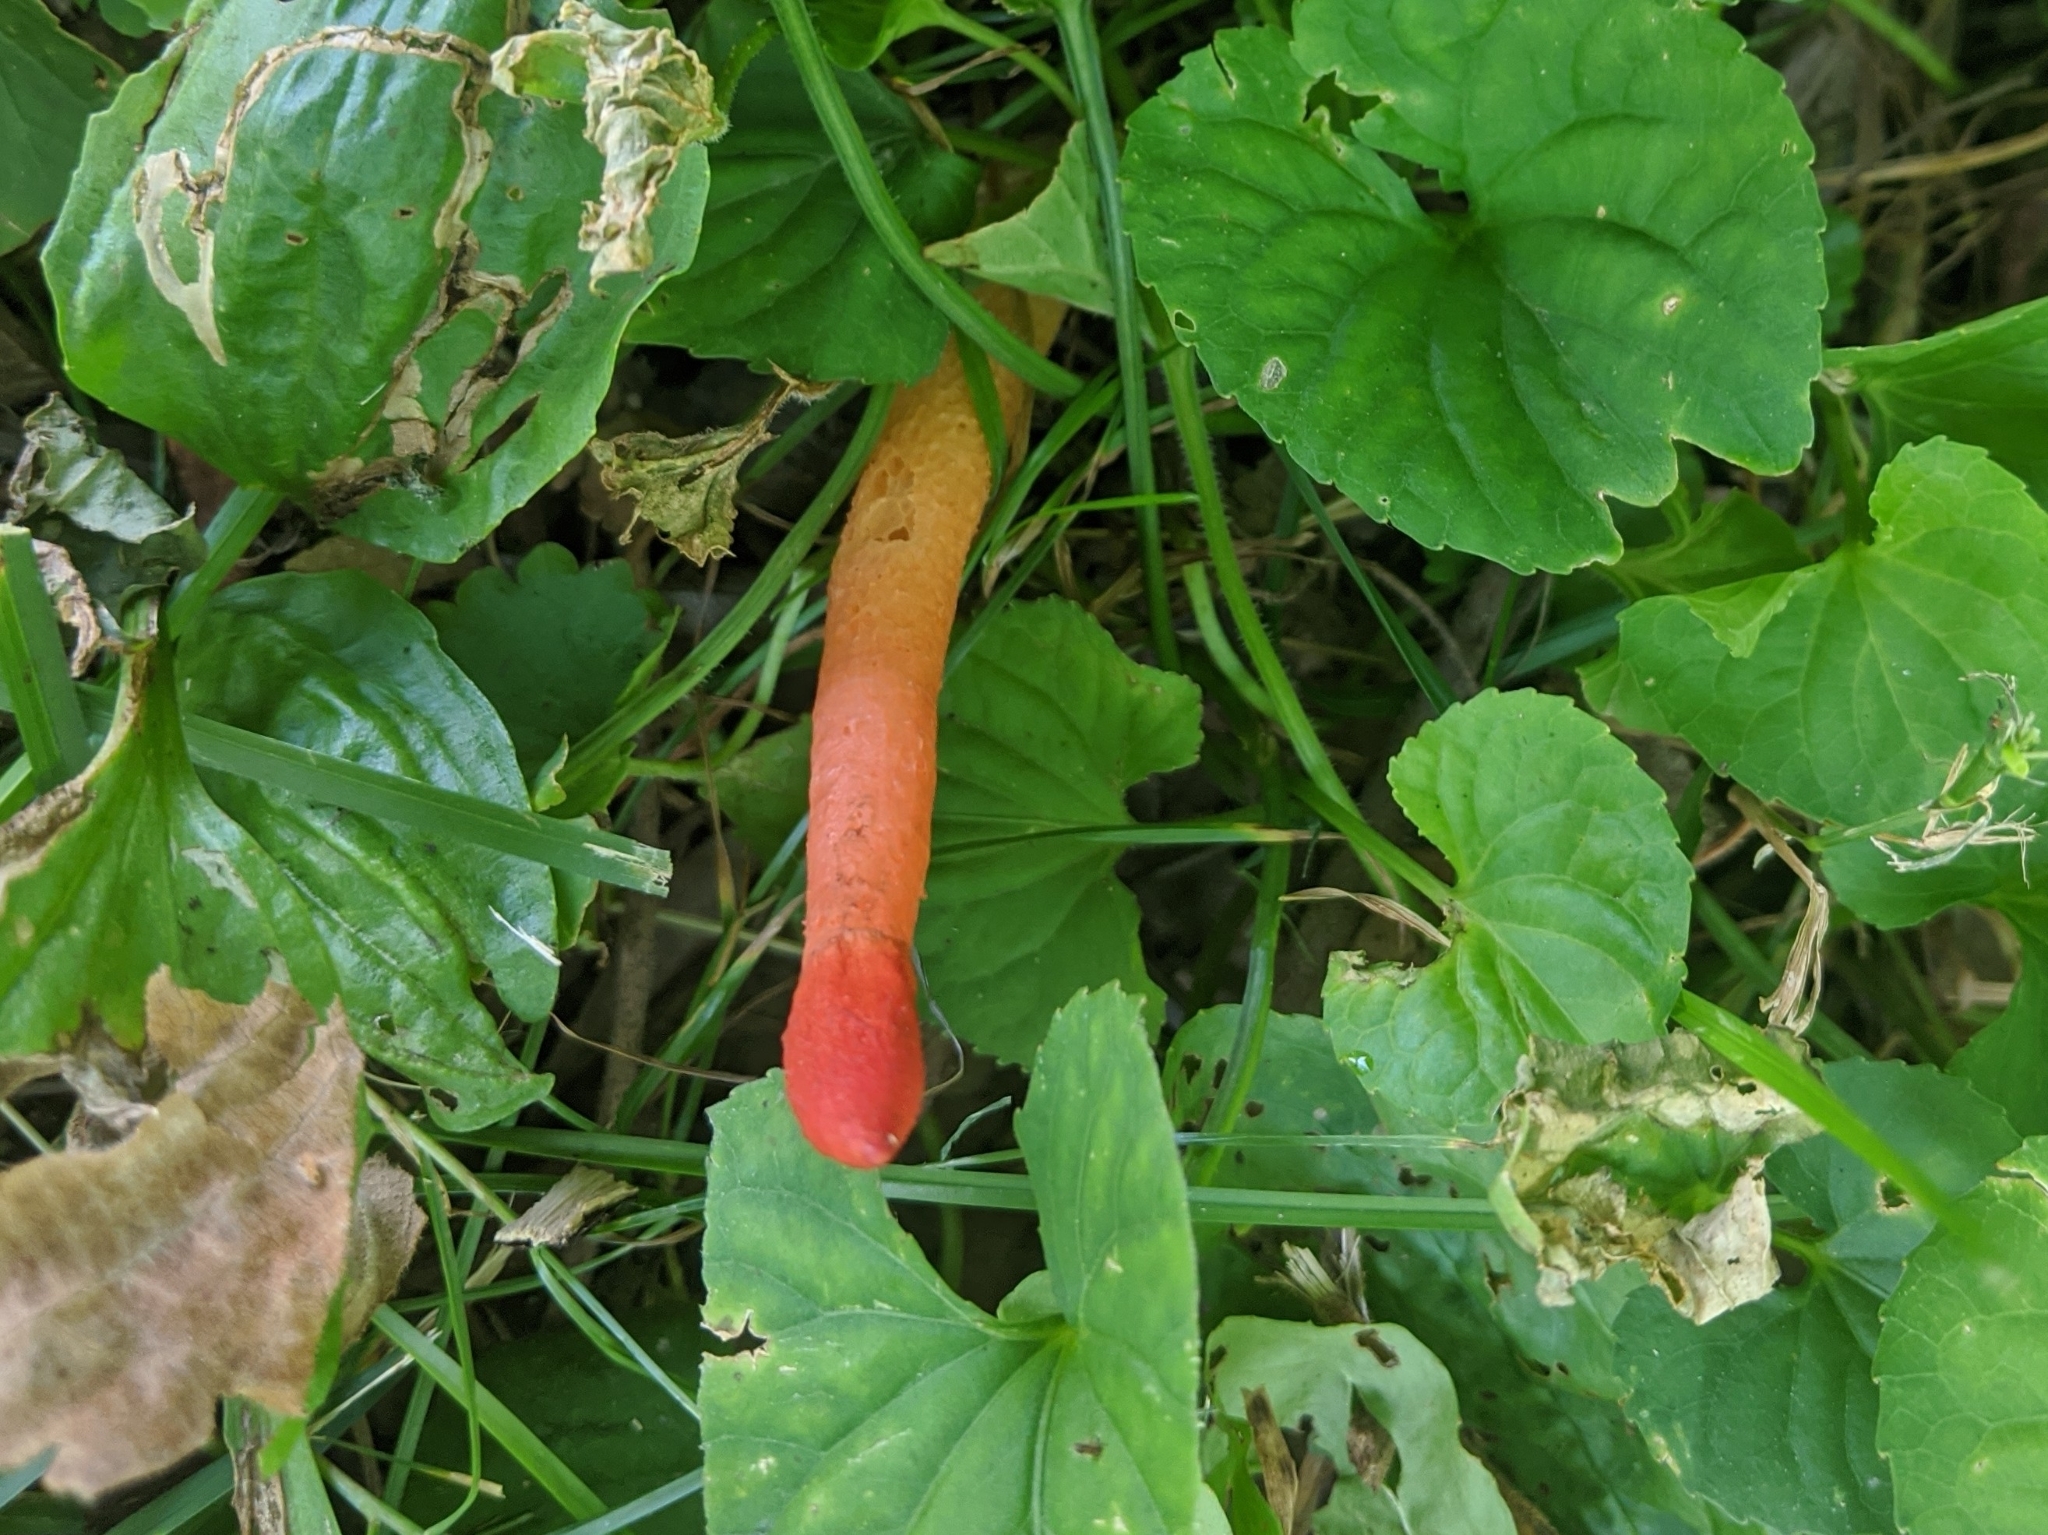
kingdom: Fungi
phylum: Basidiomycota
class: Agaricomycetes
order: Phallales
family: Phallaceae
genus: Phallus
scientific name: Phallus rugulosus
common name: Wrinkly stinkhorn
